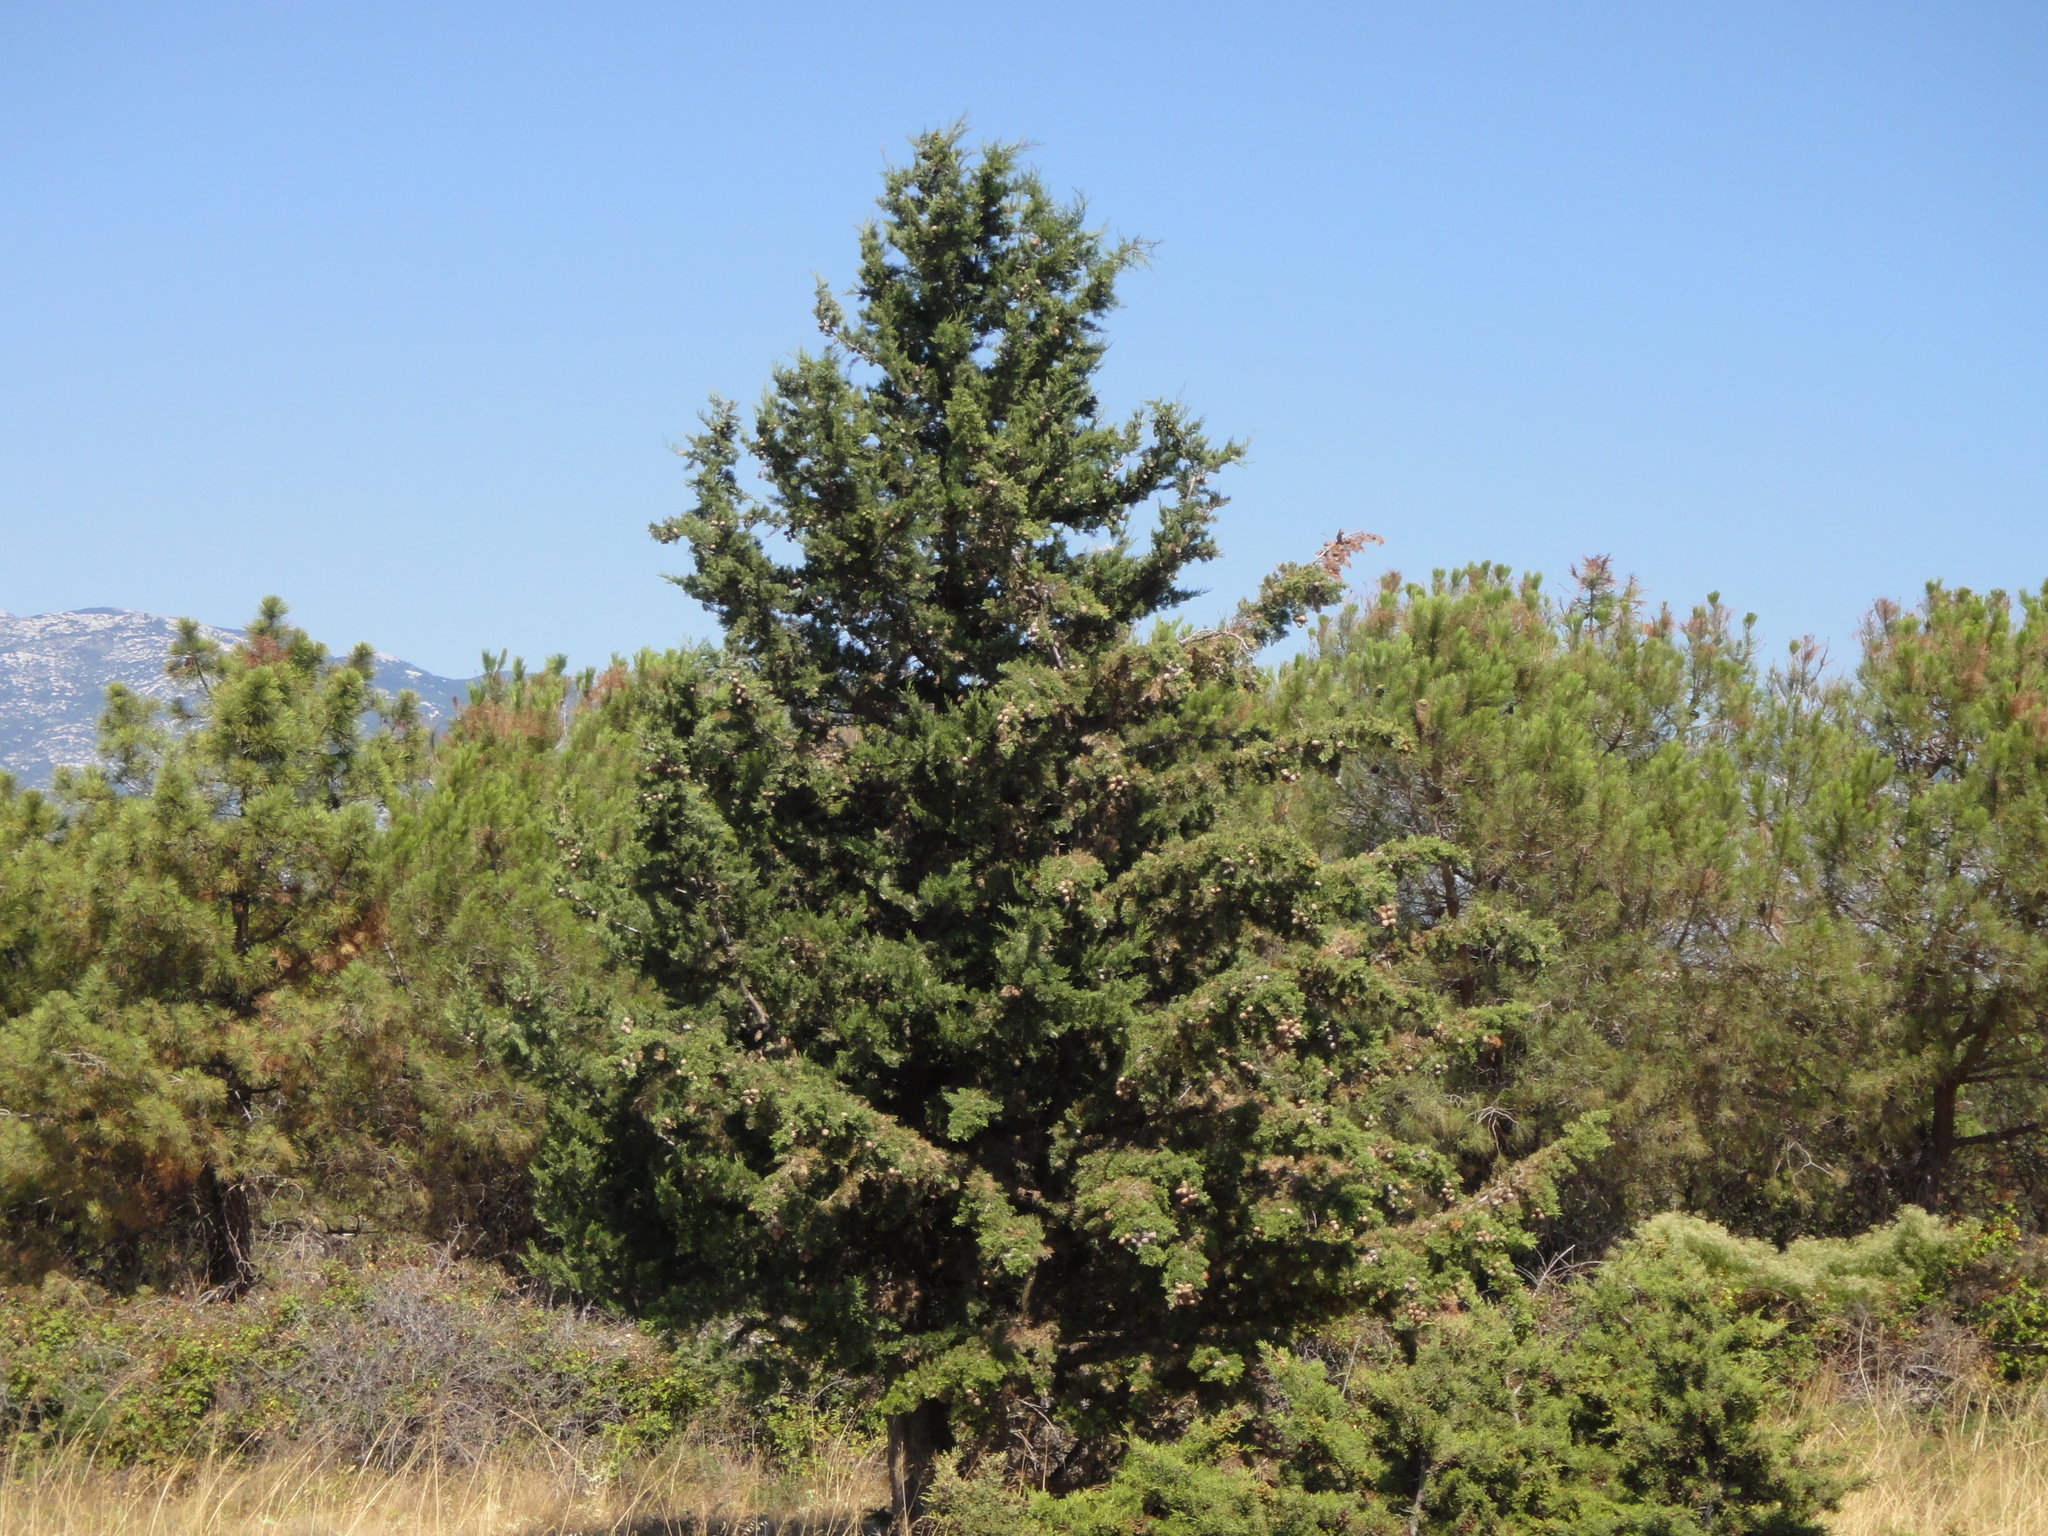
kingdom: Plantae
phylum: Tracheophyta
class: Pinopsida
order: Pinales
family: Cupressaceae
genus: Cupressus
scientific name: Cupressus sempervirens
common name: Italian cypress
